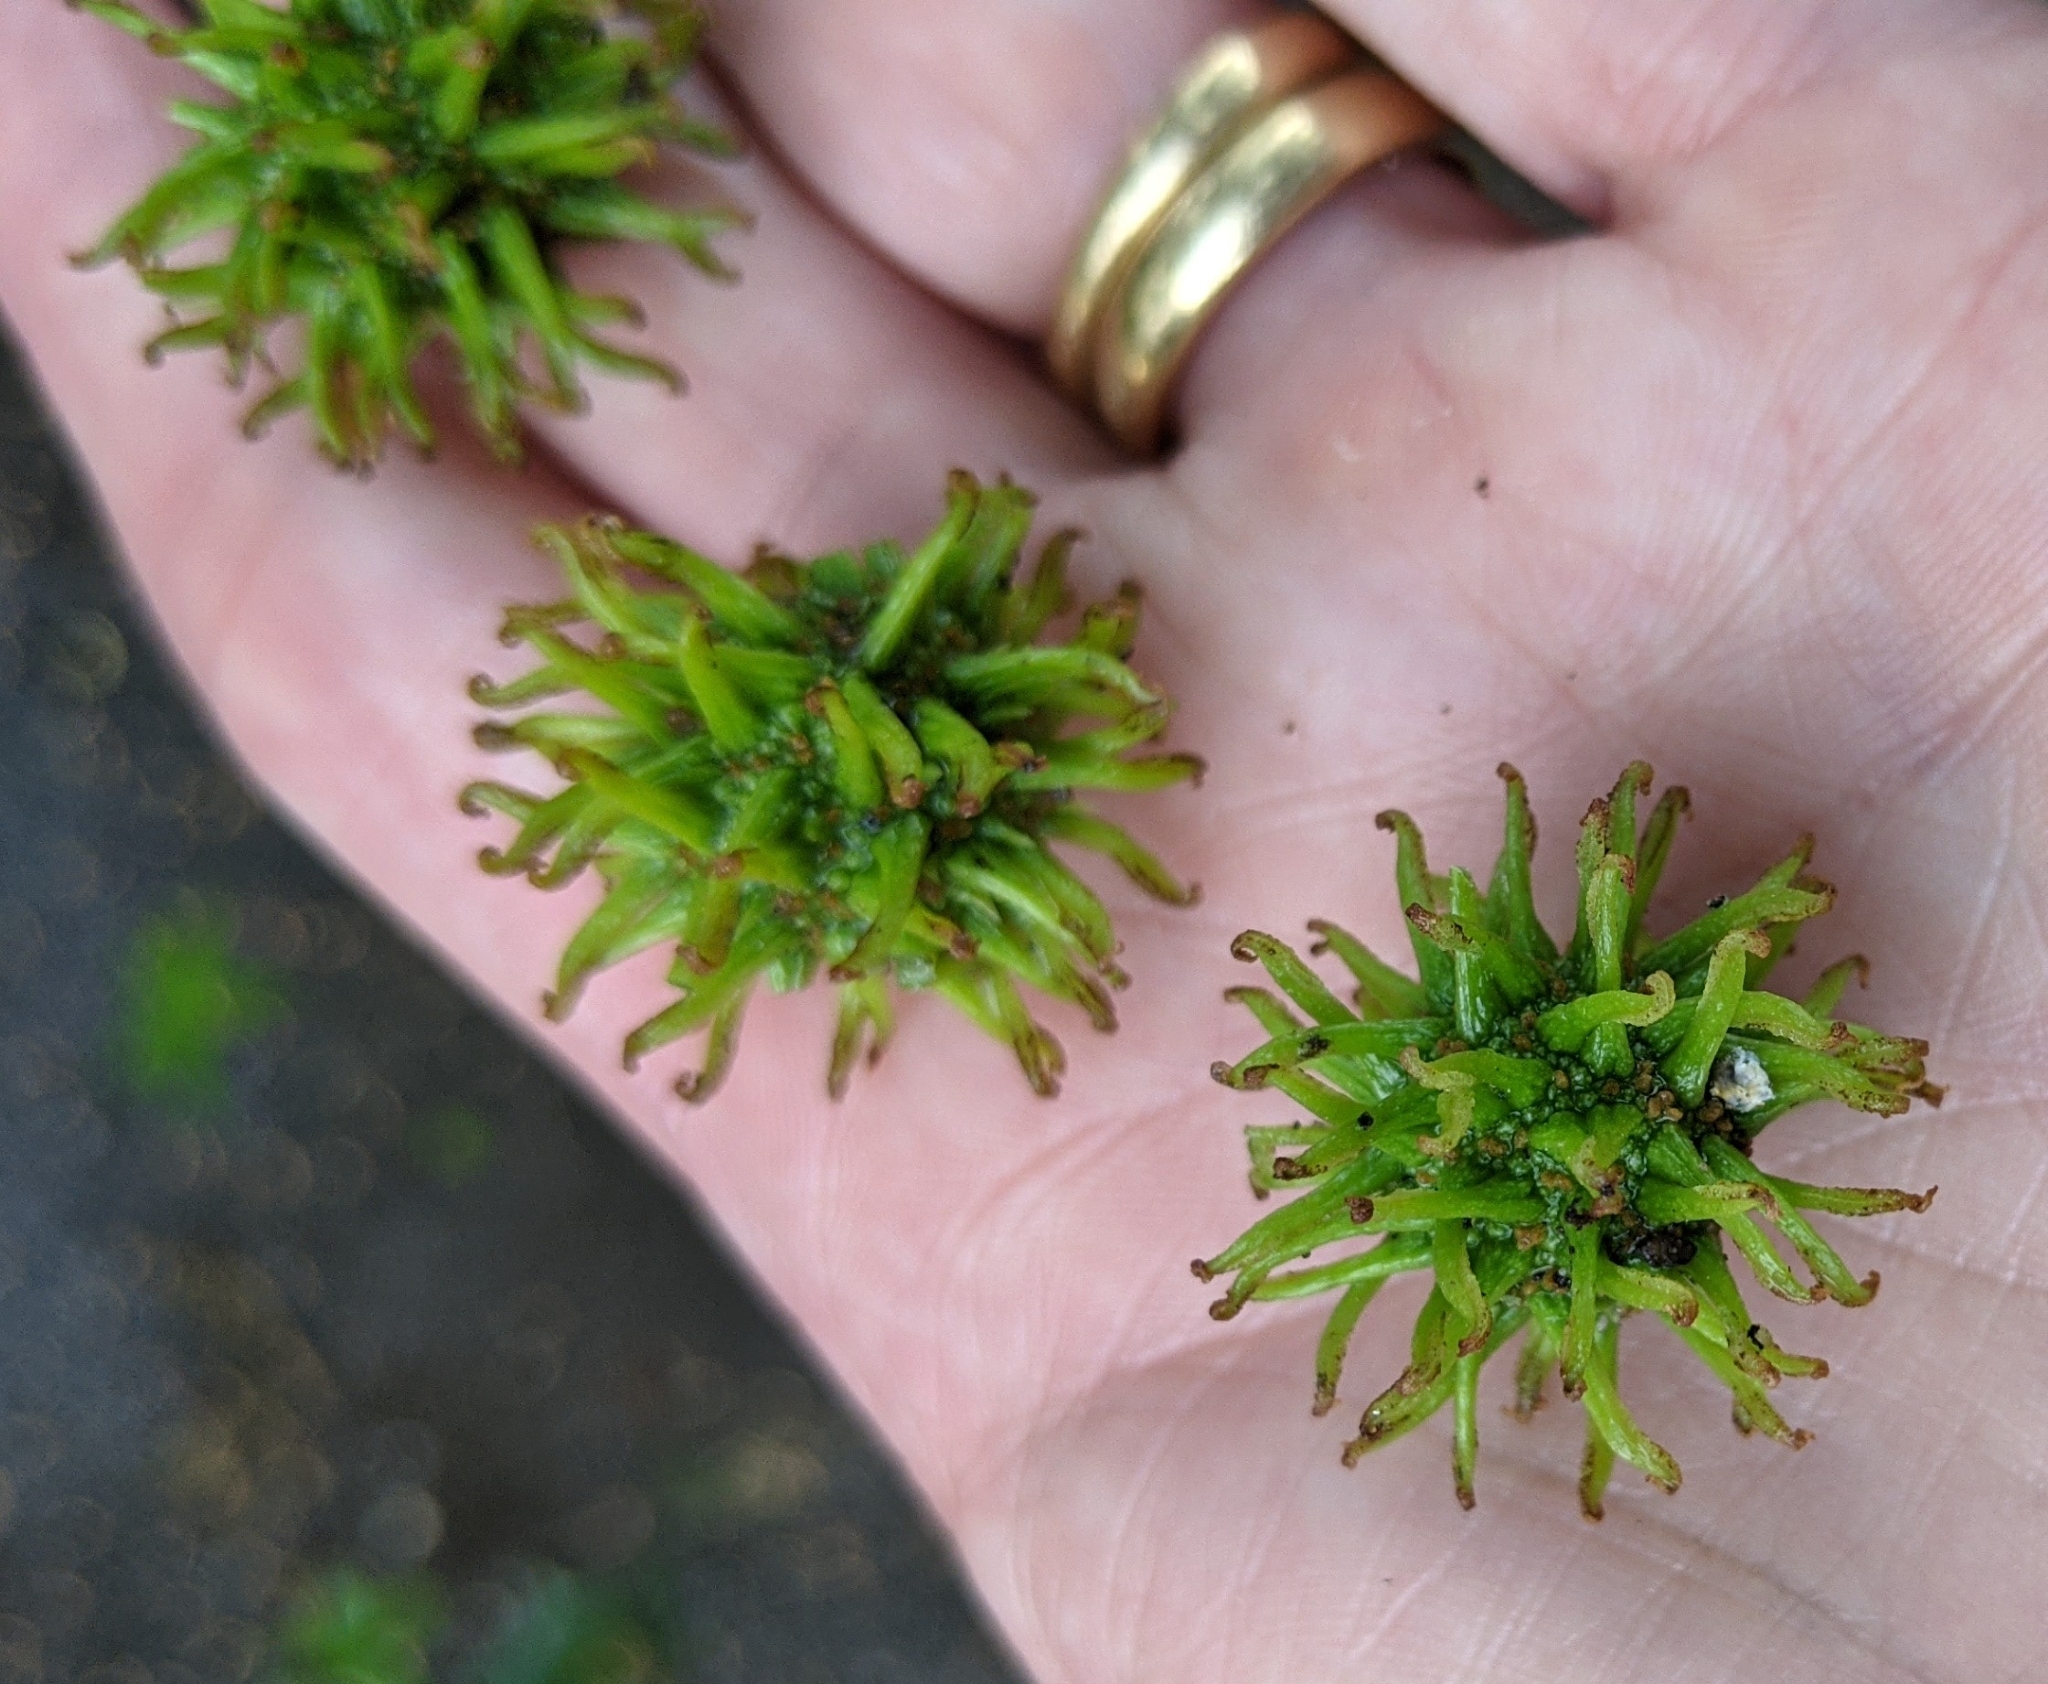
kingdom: Plantae
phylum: Tracheophyta
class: Magnoliopsida
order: Saxifragales
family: Altingiaceae
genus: Liquidambar
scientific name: Liquidambar styraciflua
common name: Sweet gum
